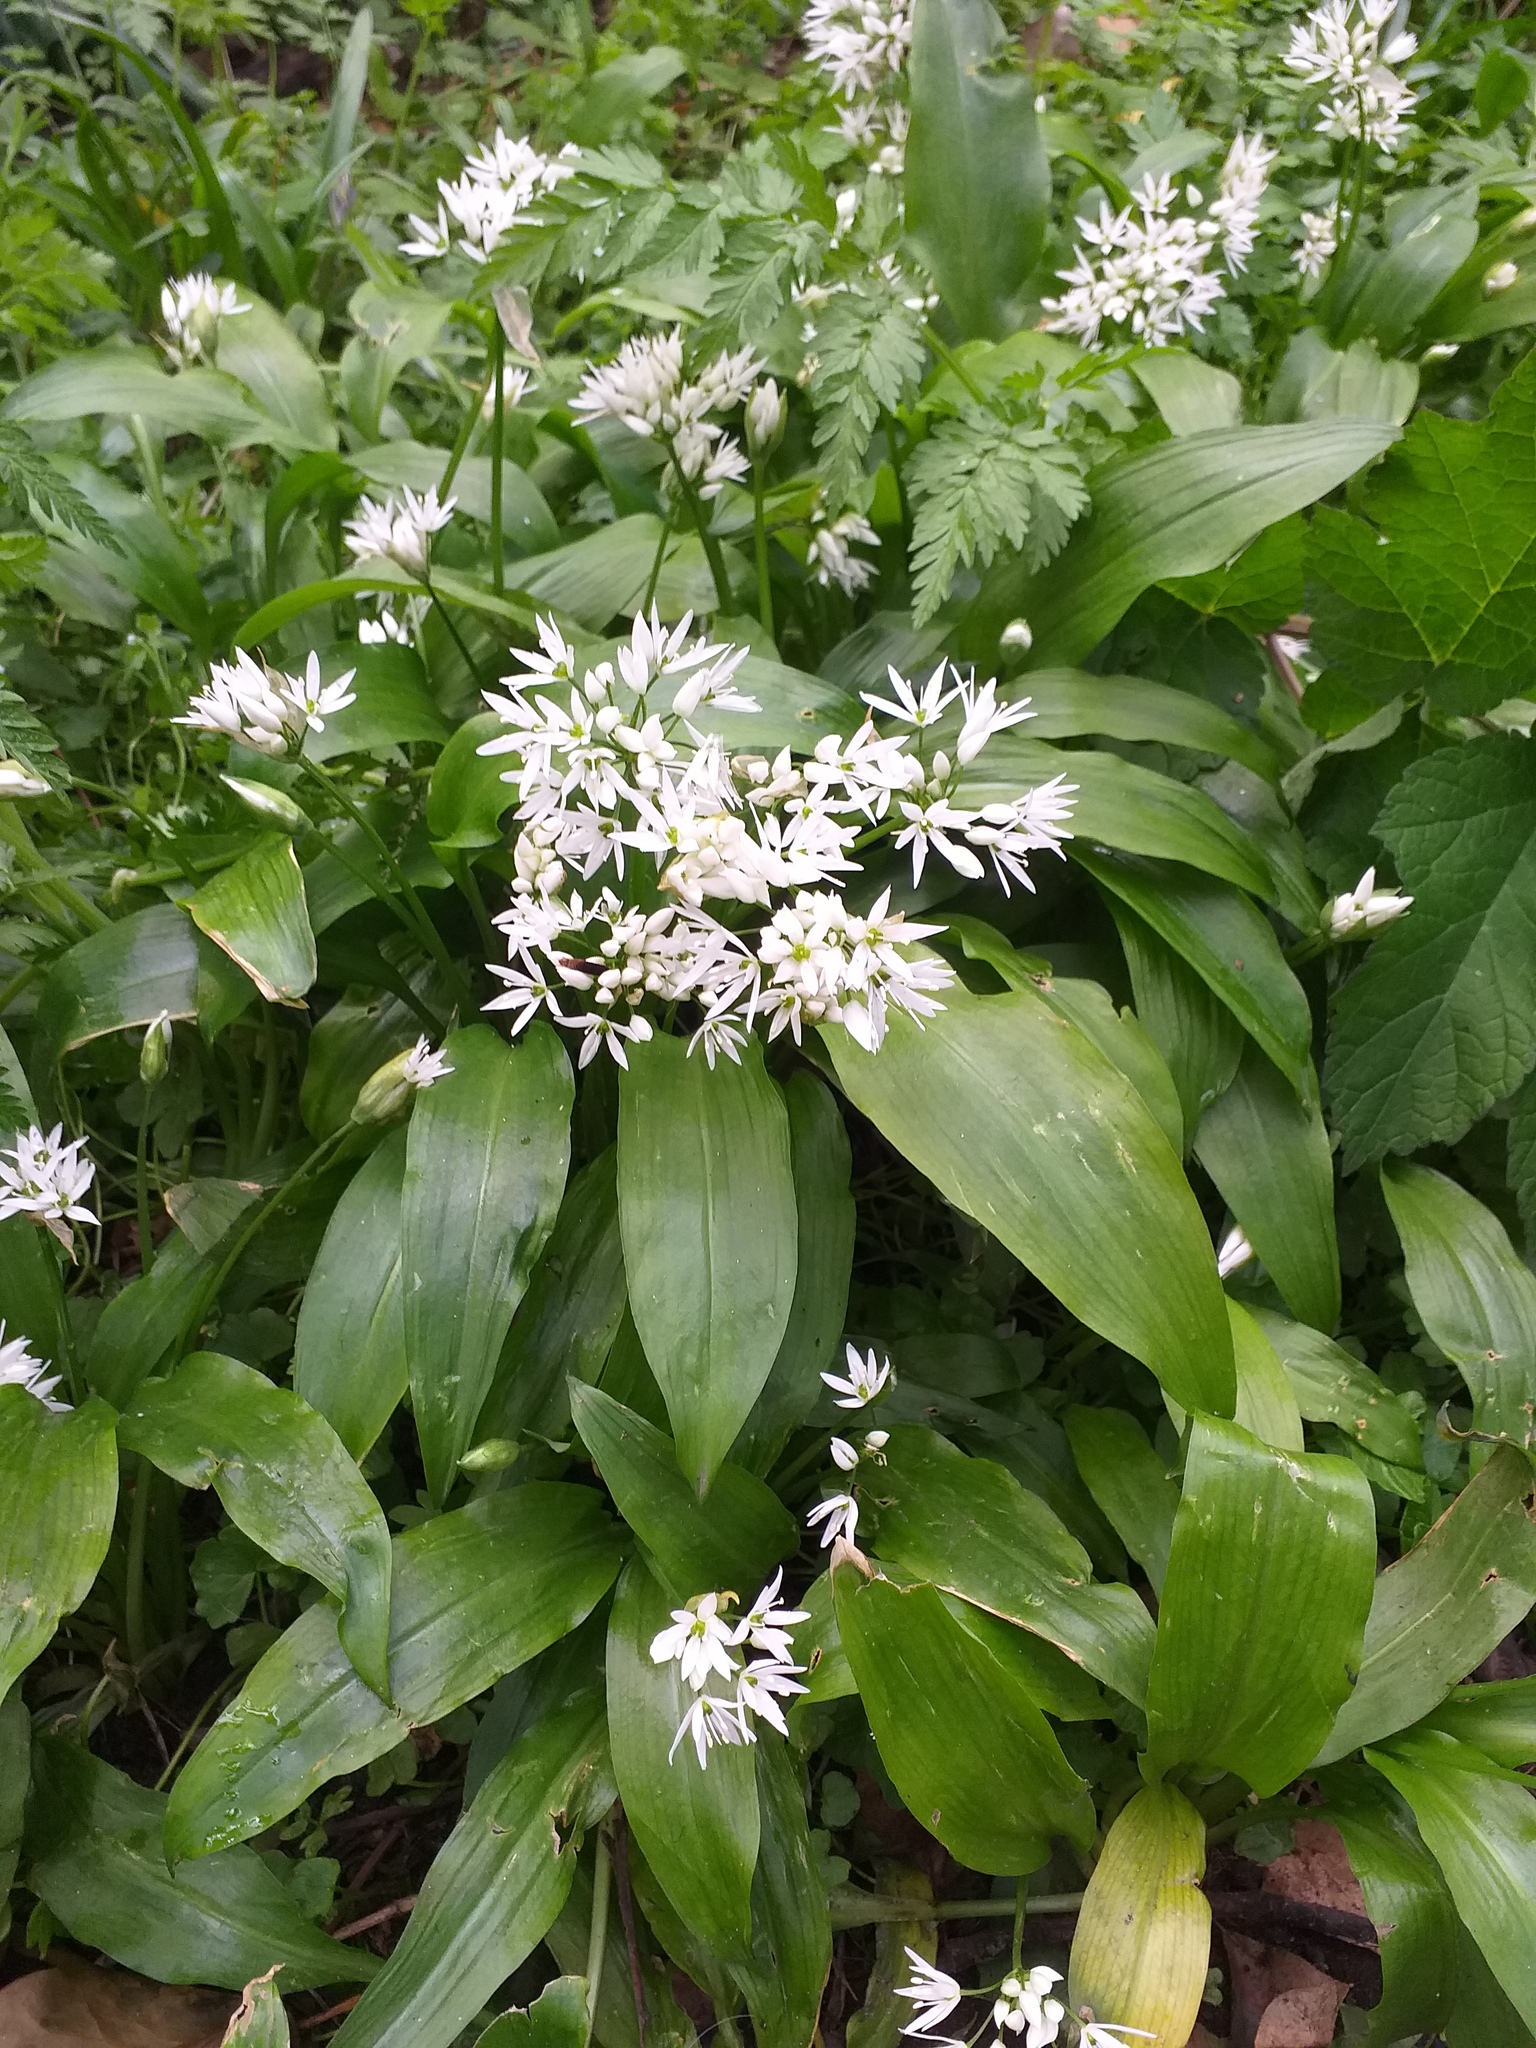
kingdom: Plantae
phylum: Tracheophyta
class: Liliopsida
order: Asparagales
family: Amaryllidaceae
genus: Allium
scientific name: Allium ursinum
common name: Ramsons
